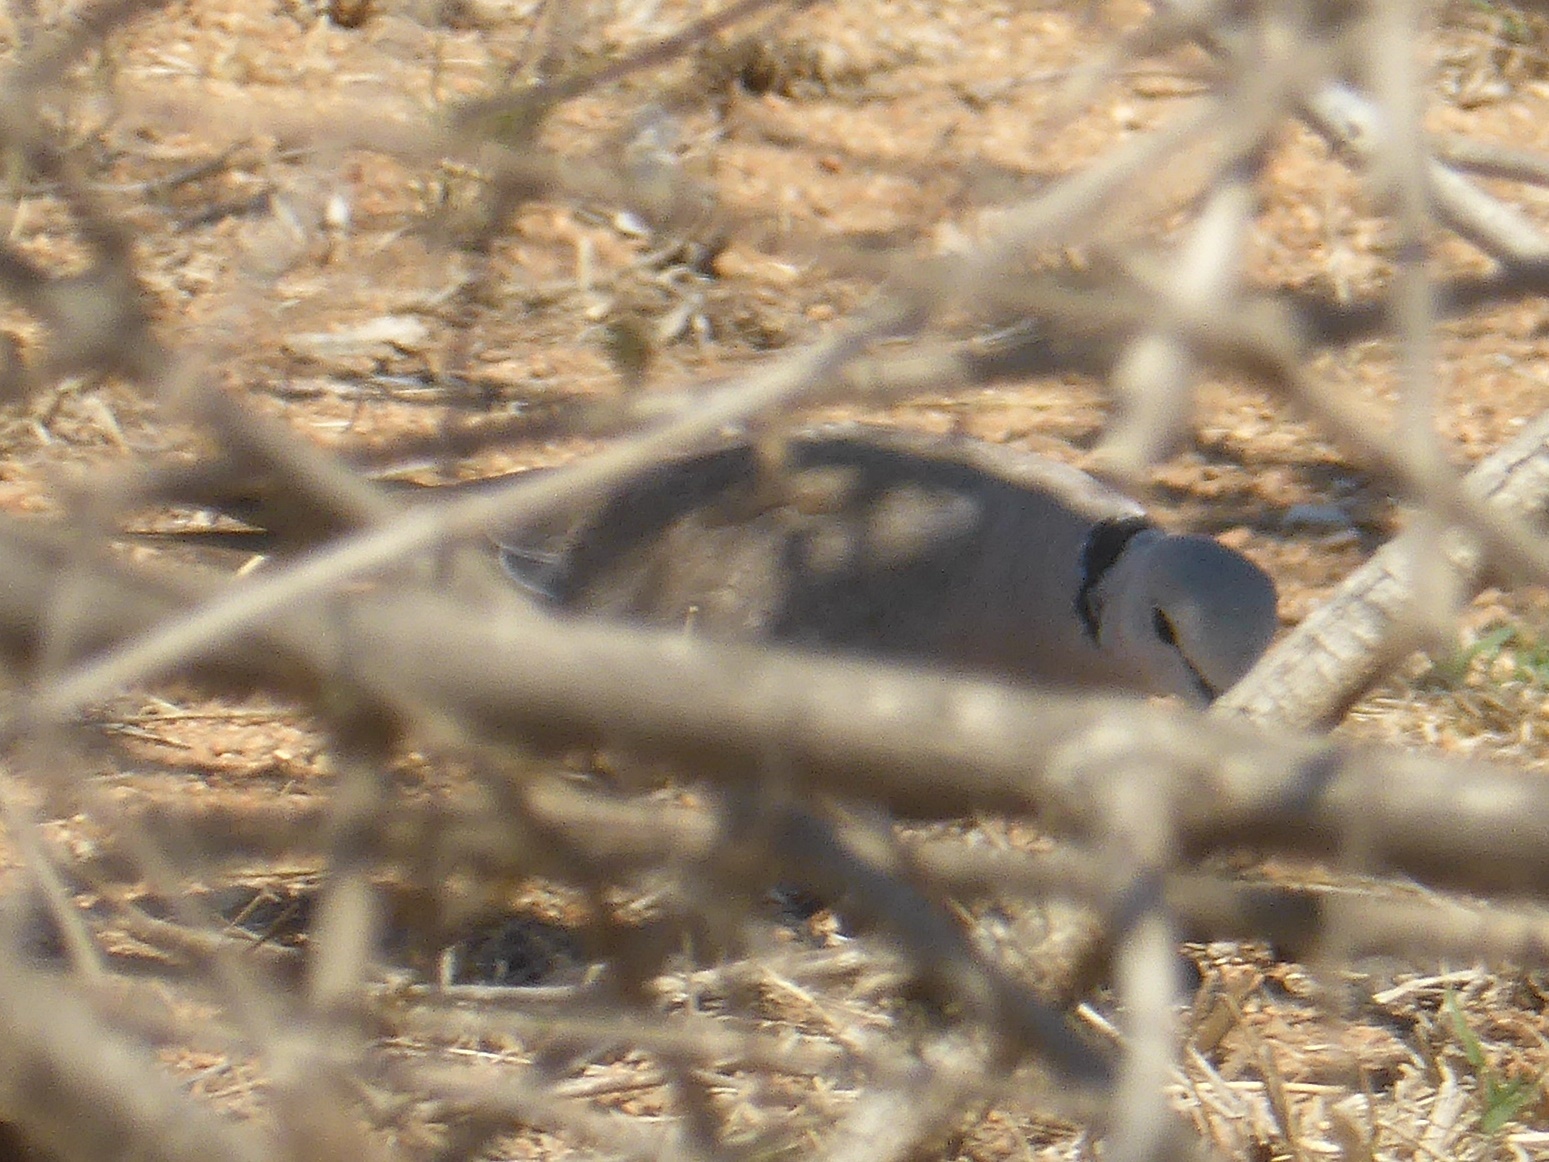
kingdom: Animalia
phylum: Chordata
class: Aves
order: Columbiformes
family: Columbidae
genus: Streptopelia
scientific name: Streptopelia capicola
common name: Ring-necked dove
